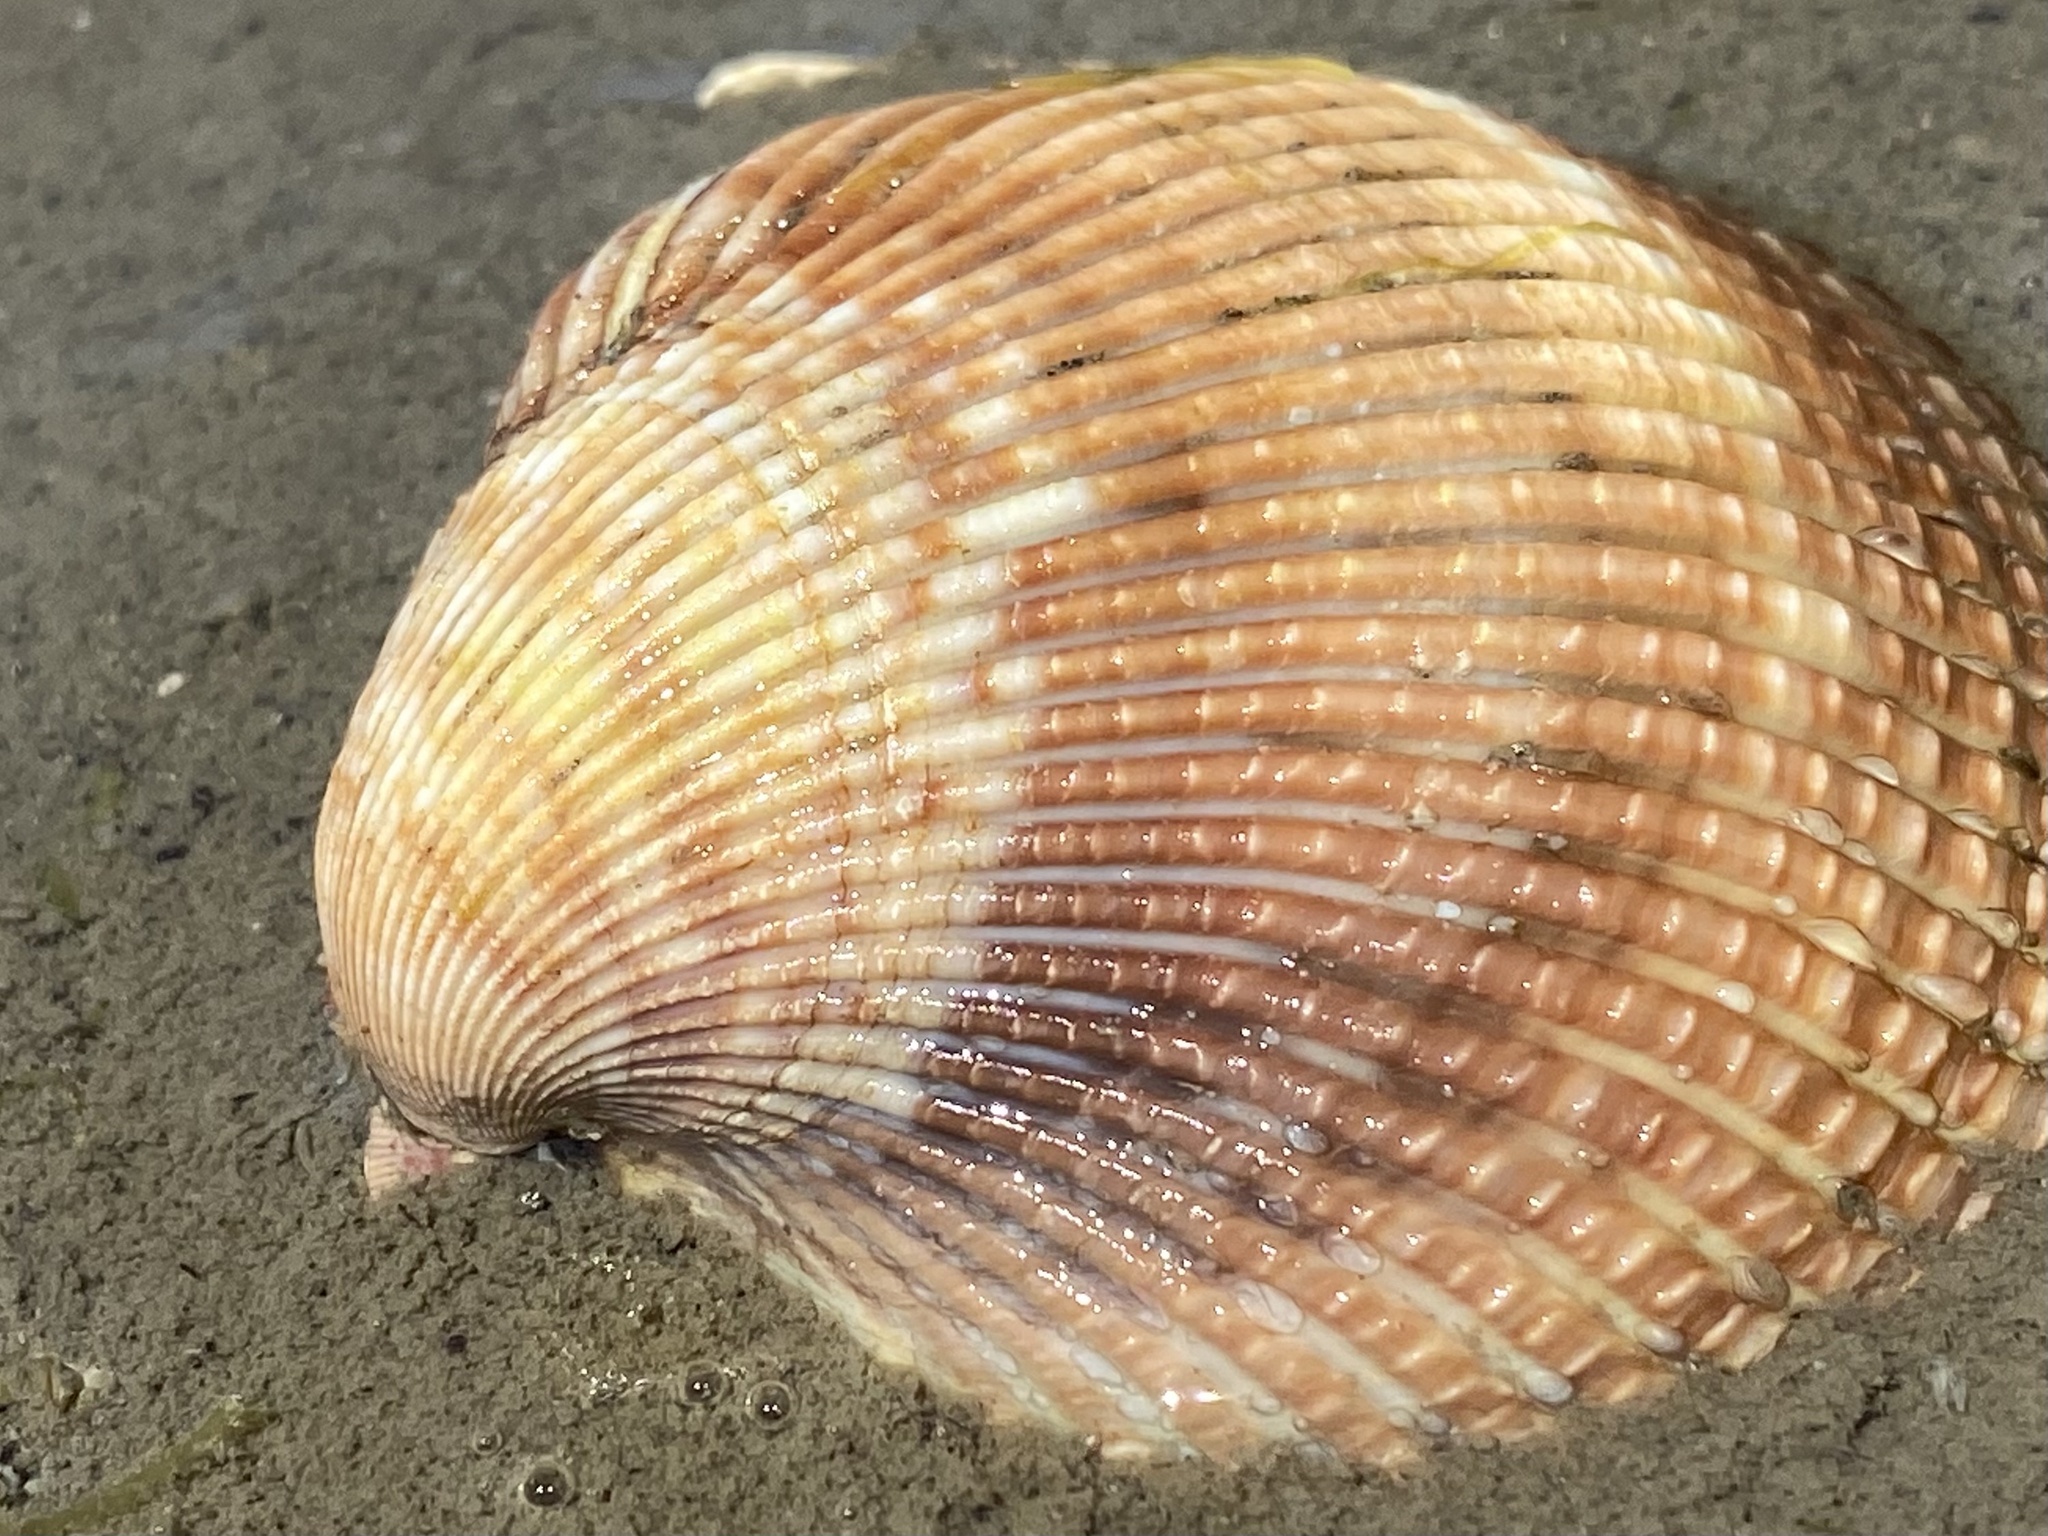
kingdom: Animalia
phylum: Mollusca
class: Bivalvia
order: Cardiida
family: Cardiidae
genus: Clinocardium
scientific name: Clinocardium nuttallii
